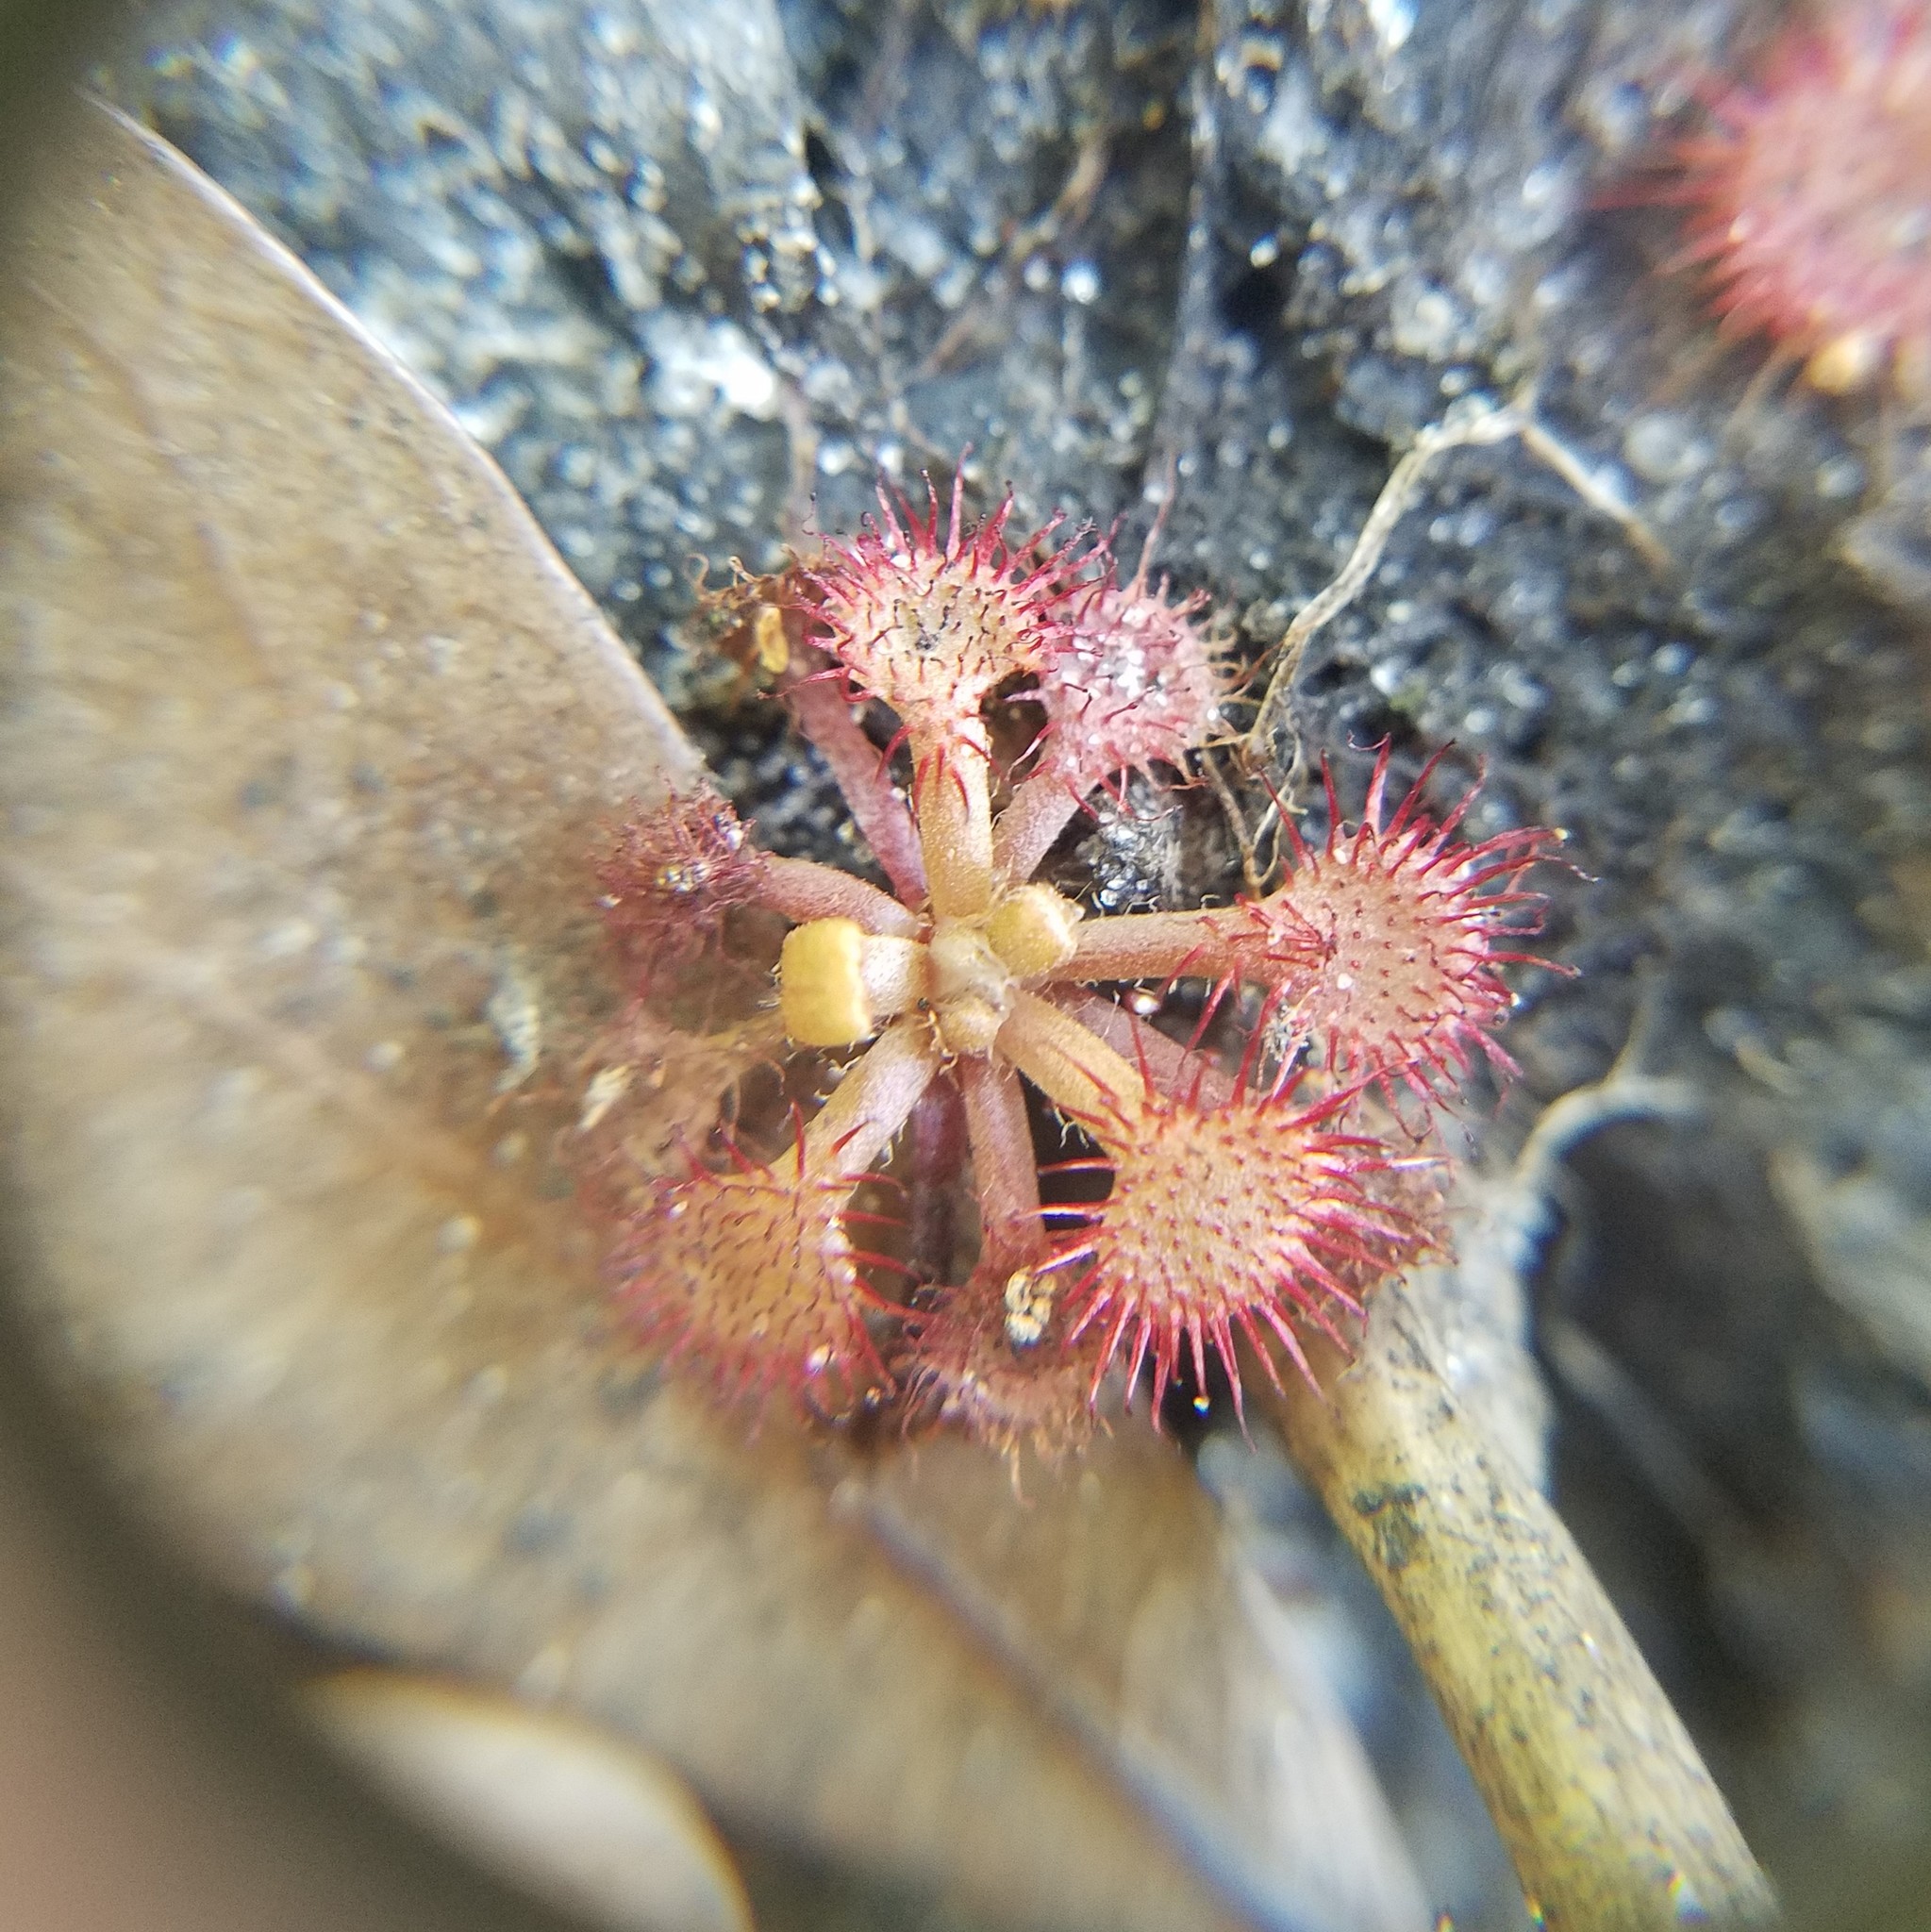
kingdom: Plantae
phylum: Tracheophyta
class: Magnoliopsida
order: Caryophyllales
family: Droseraceae
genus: Drosera
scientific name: Drosera capillaris
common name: Pink sundew
